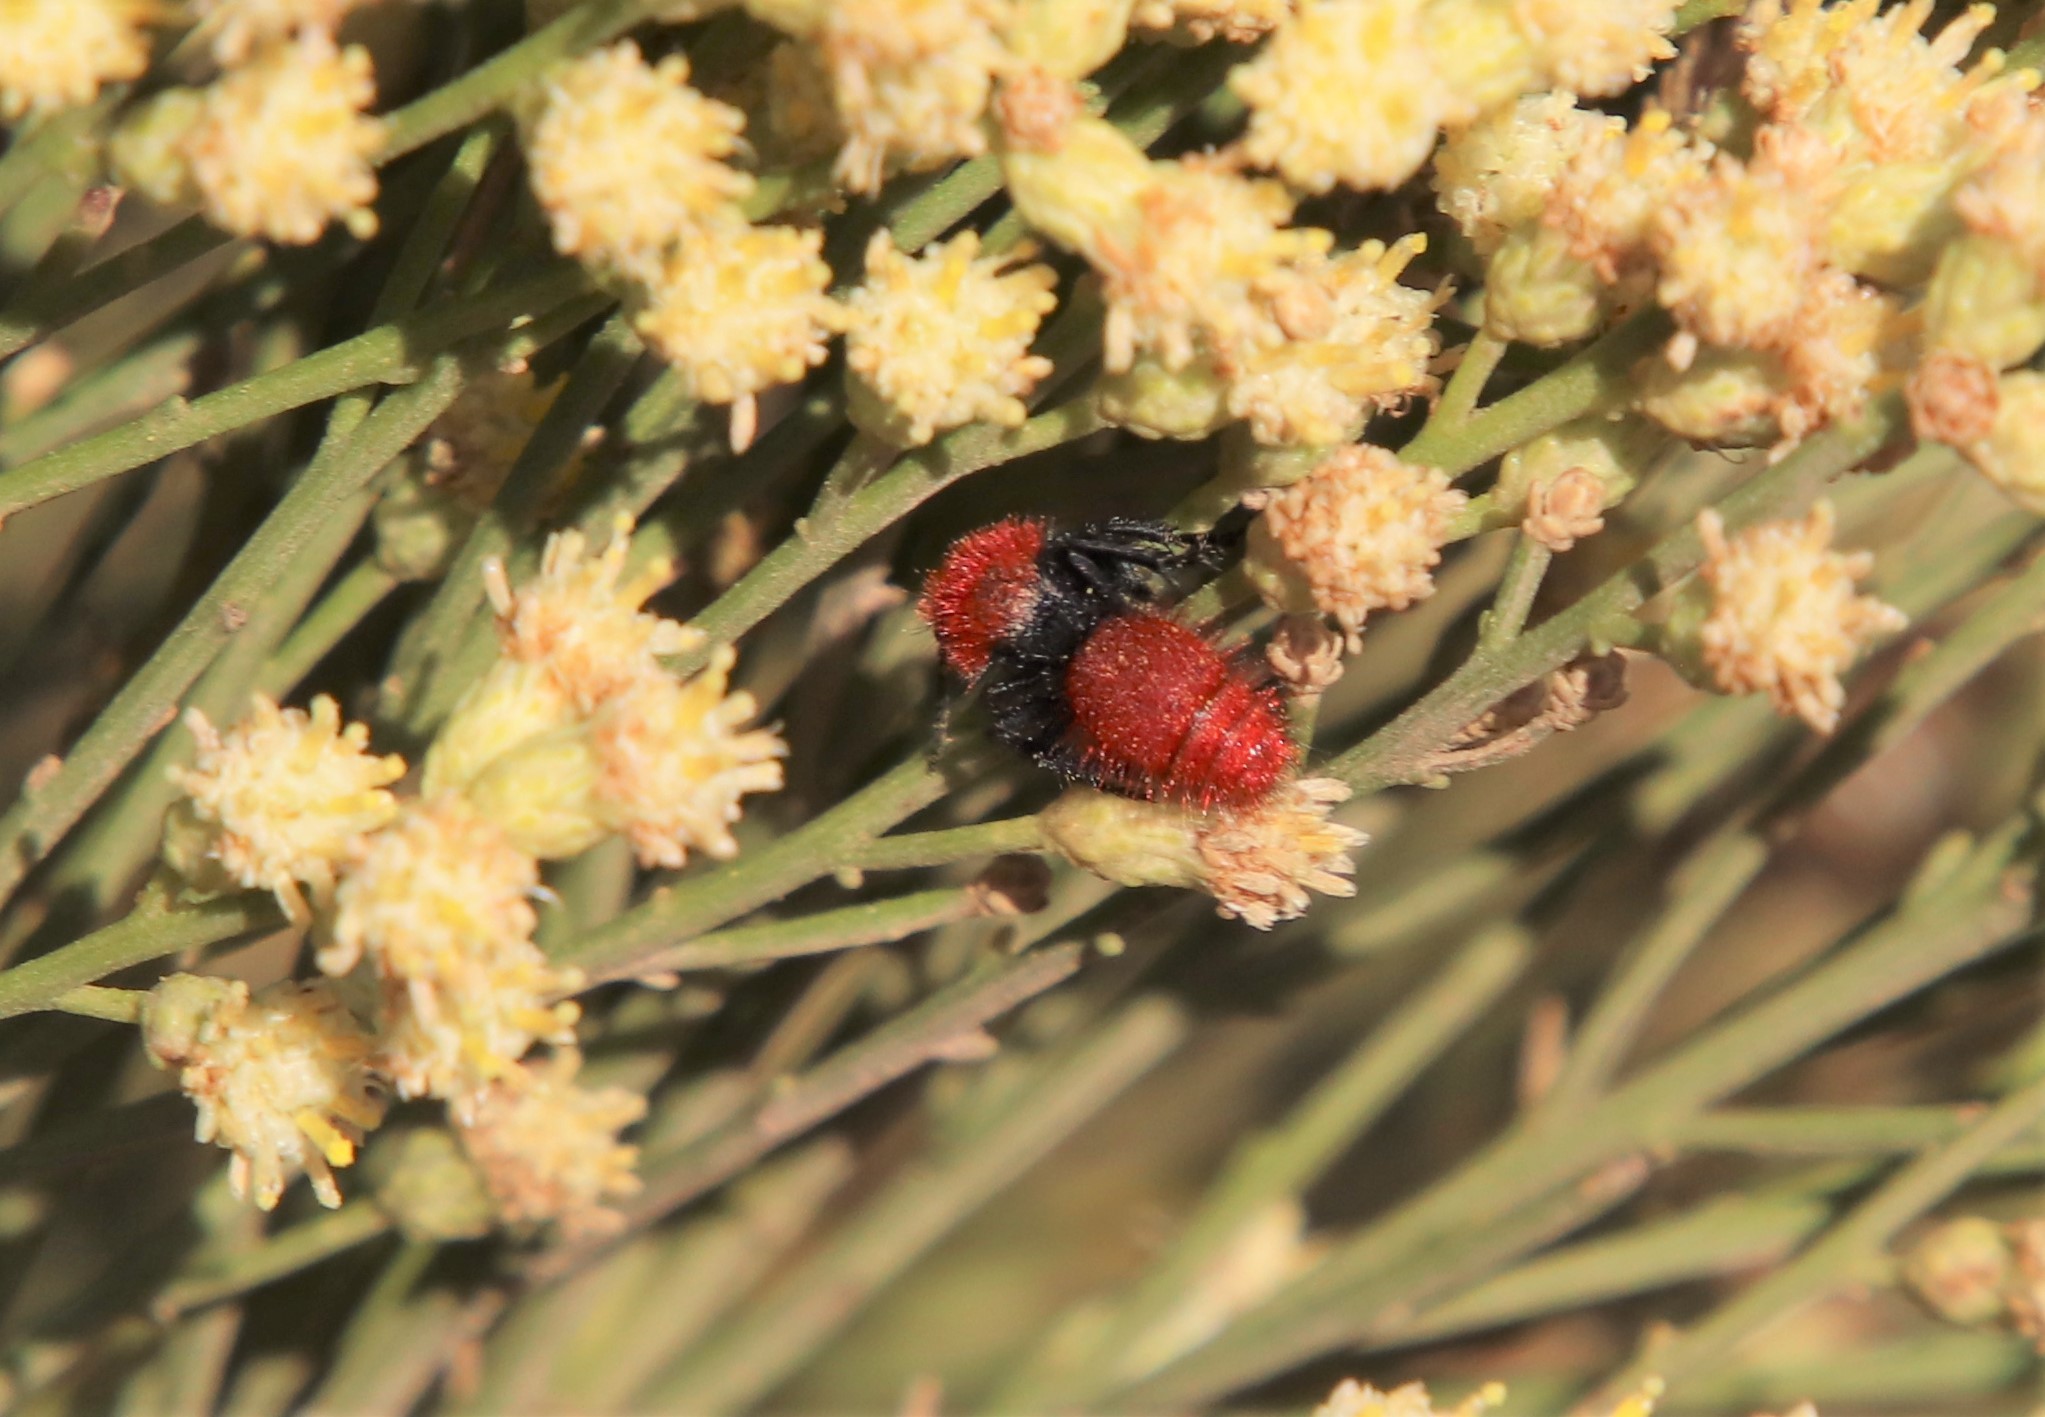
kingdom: Animalia
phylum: Arthropoda
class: Insecta
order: Hymenoptera
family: Mutillidae
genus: Dasymutilla
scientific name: Dasymutilla
